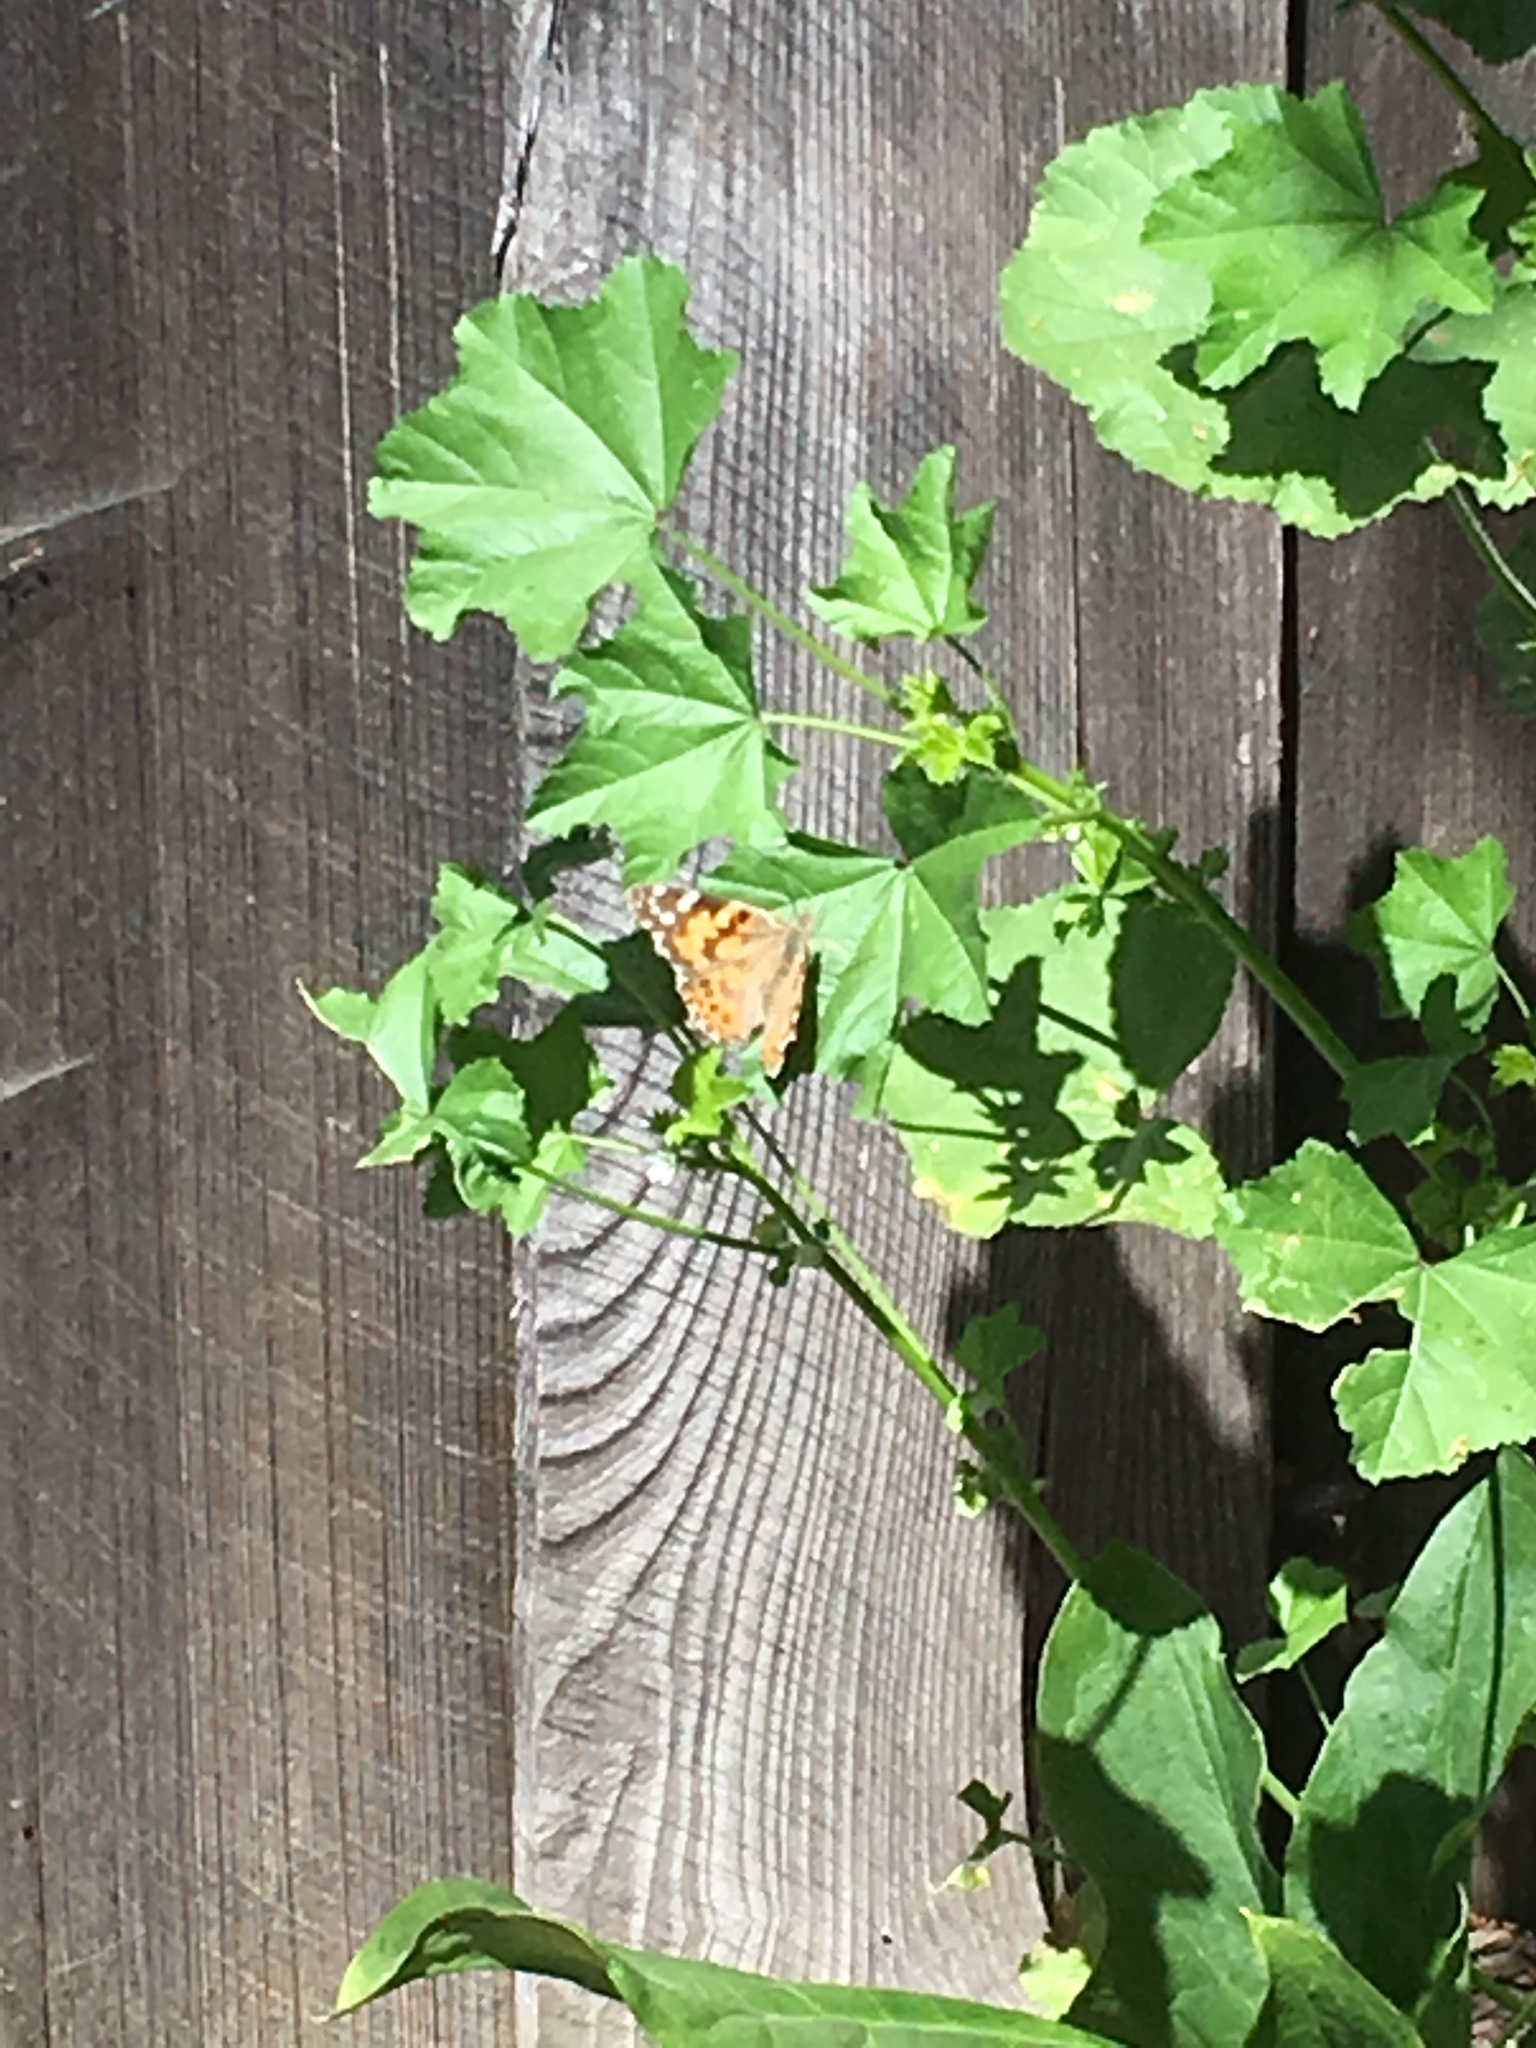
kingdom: Animalia
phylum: Arthropoda
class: Insecta
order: Lepidoptera
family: Nymphalidae
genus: Vanessa
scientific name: Vanessa cardui
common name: Painted lady
